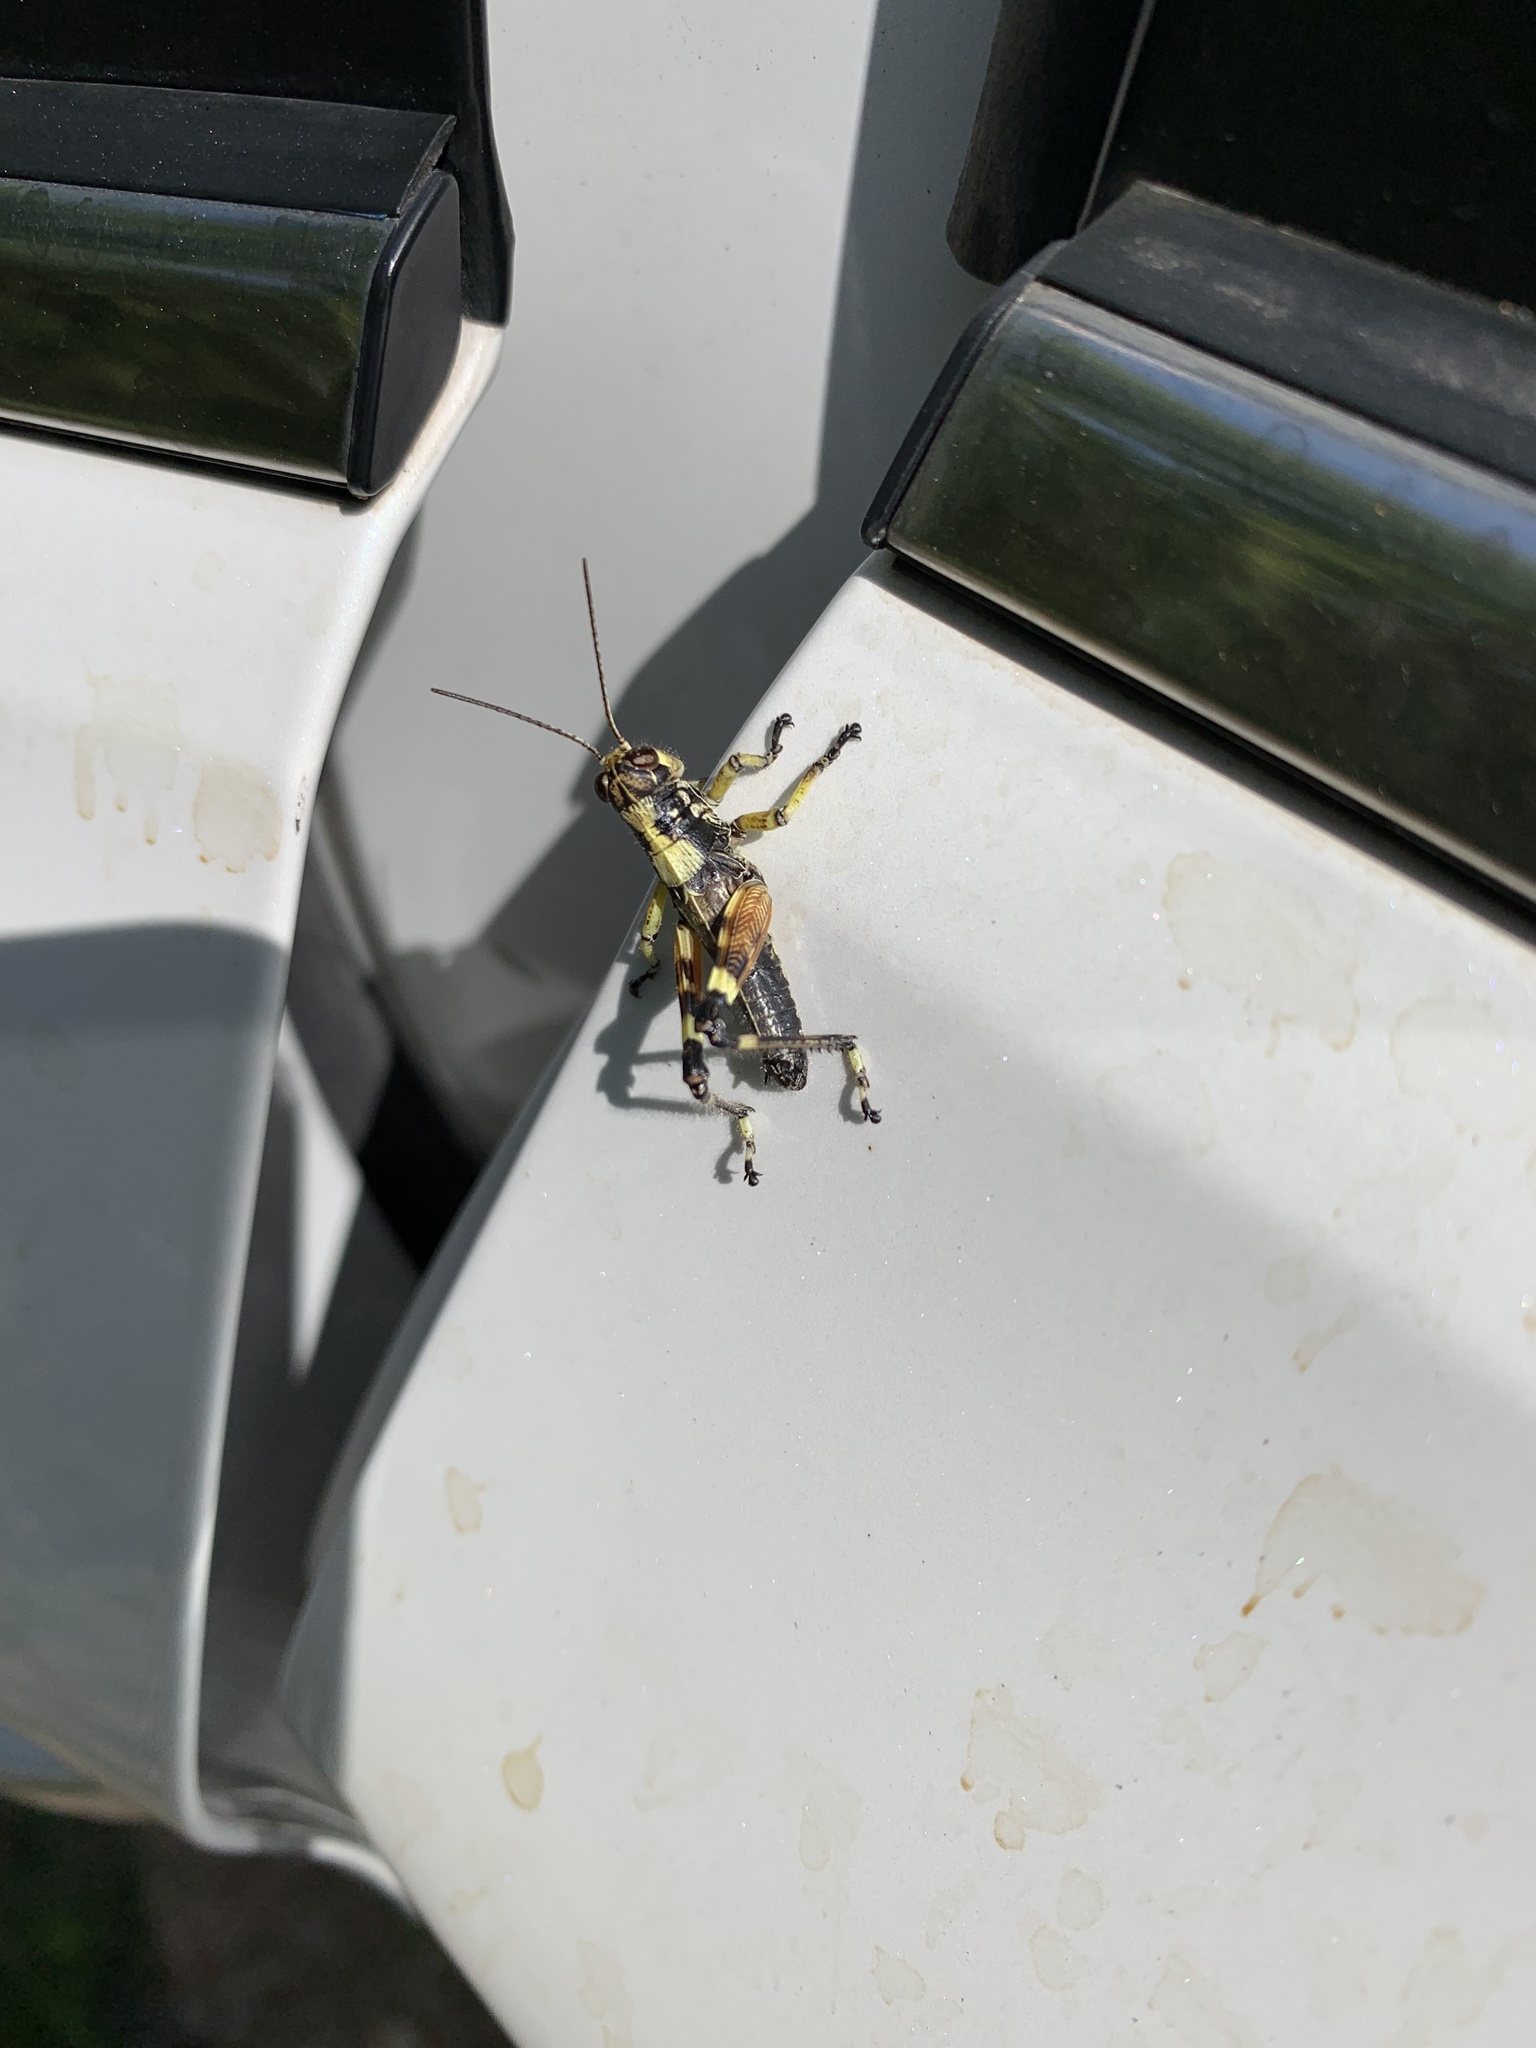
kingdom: Animalia
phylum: Arthropoda
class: Insecta
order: Orthoptera
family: Acrididae
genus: Dendrotettix
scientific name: Dendrotettix quercus
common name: Post oak grasshopper
